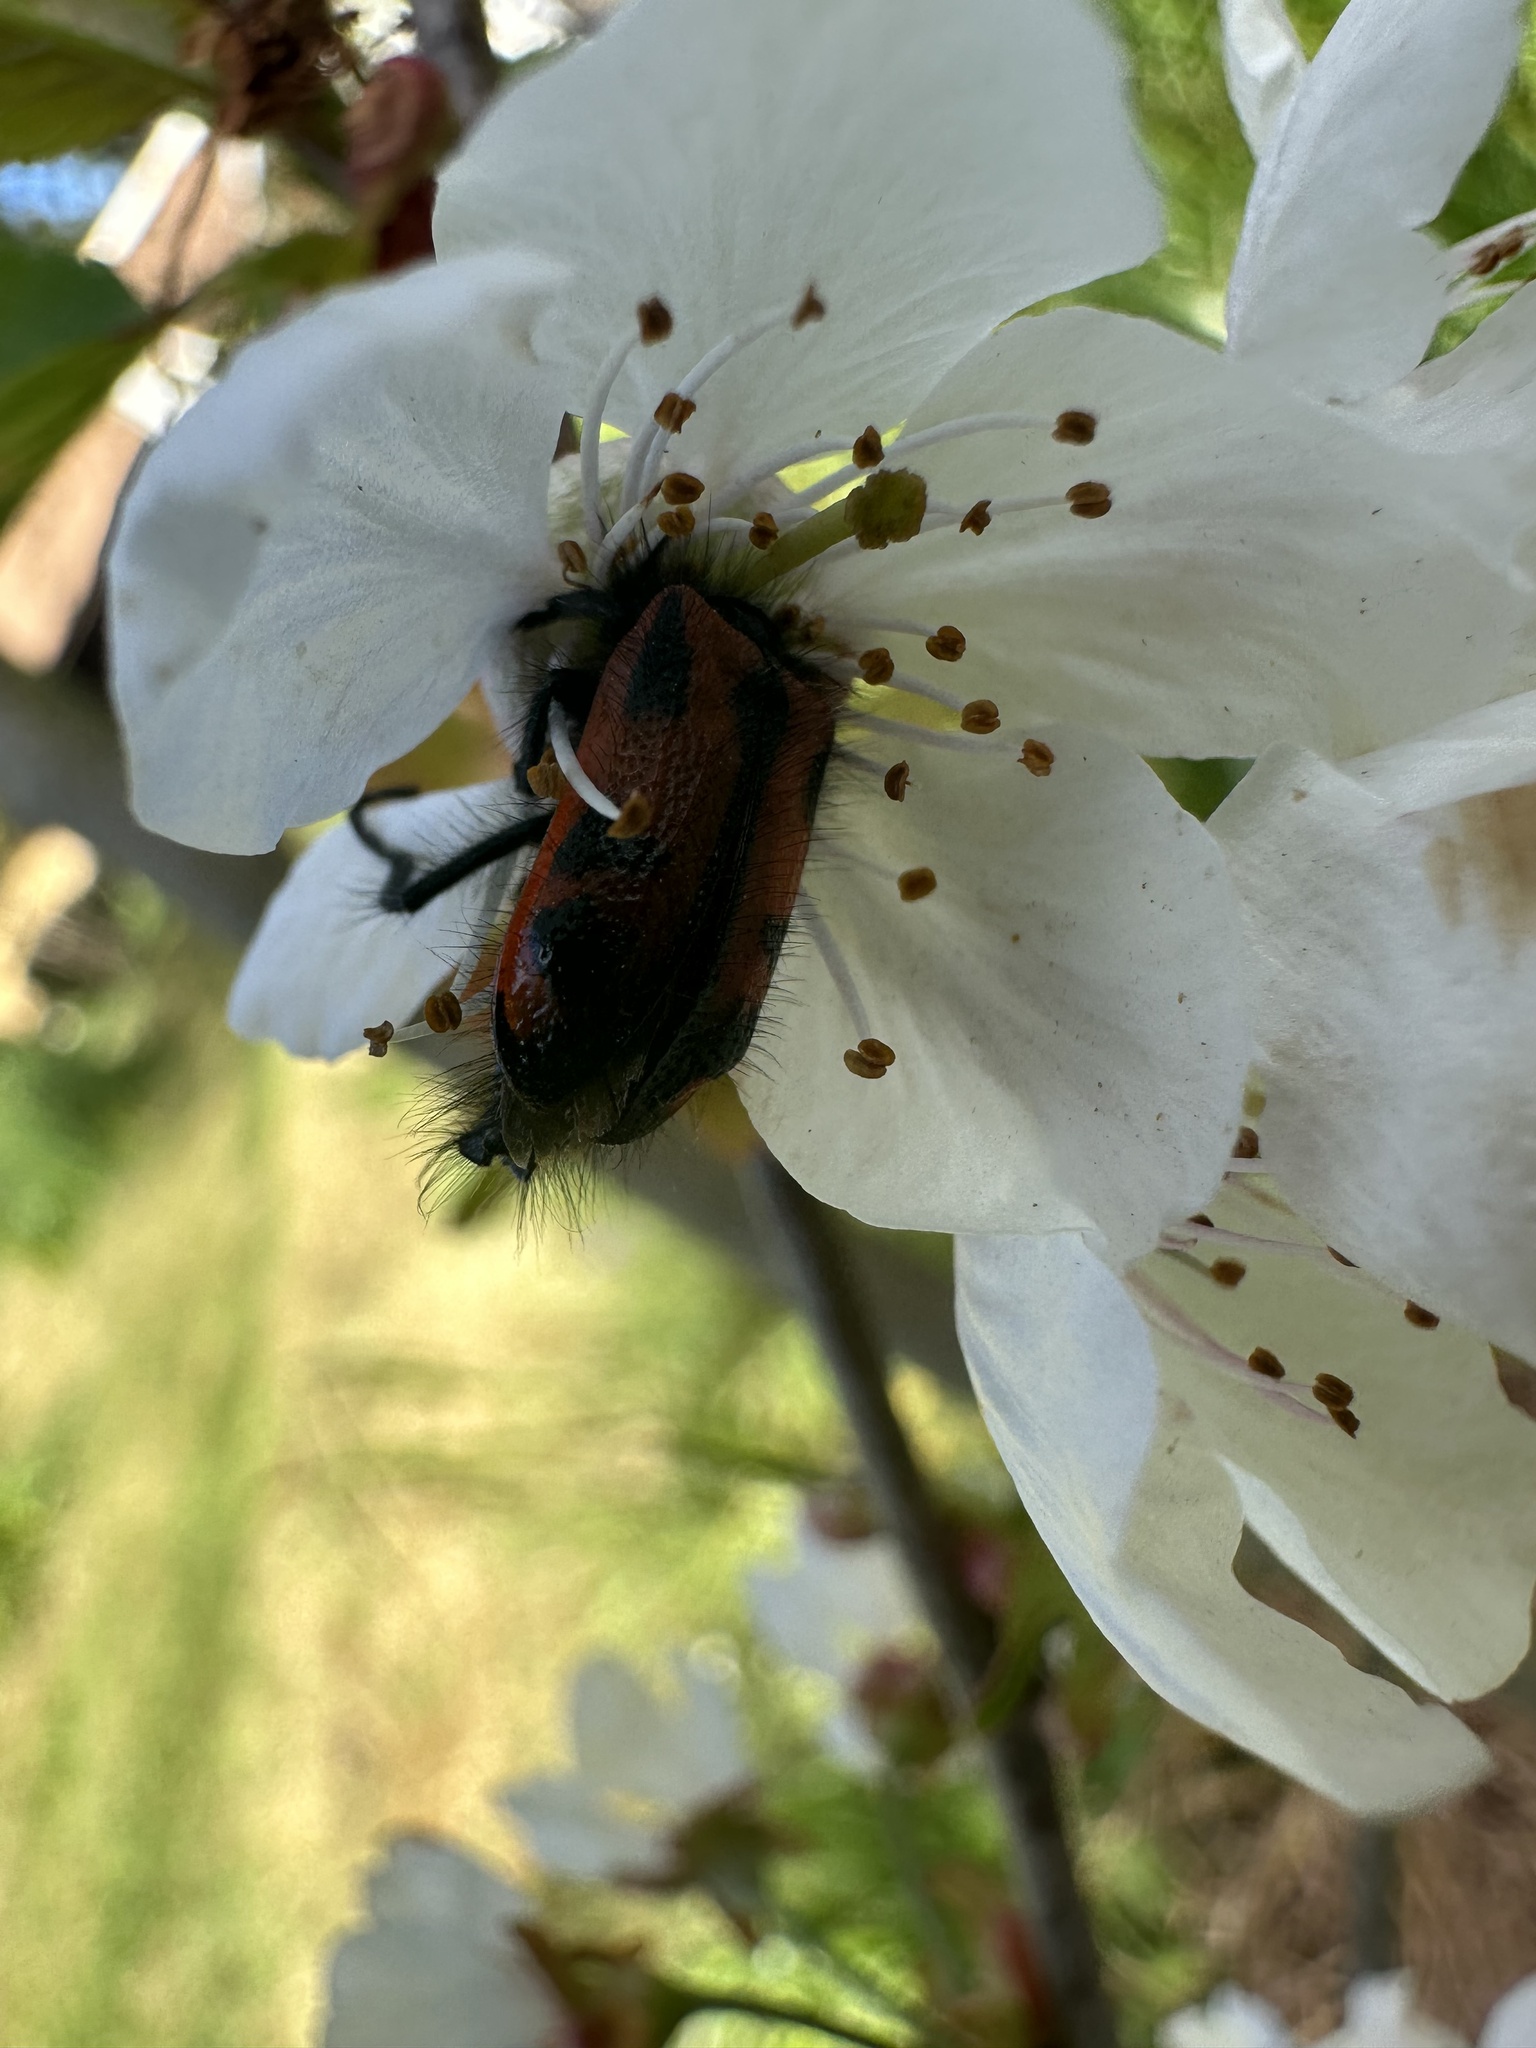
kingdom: Animalia
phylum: Arthropoda
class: Insecta
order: Coleoptera
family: Melyridae
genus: Astylus
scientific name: Astylus
